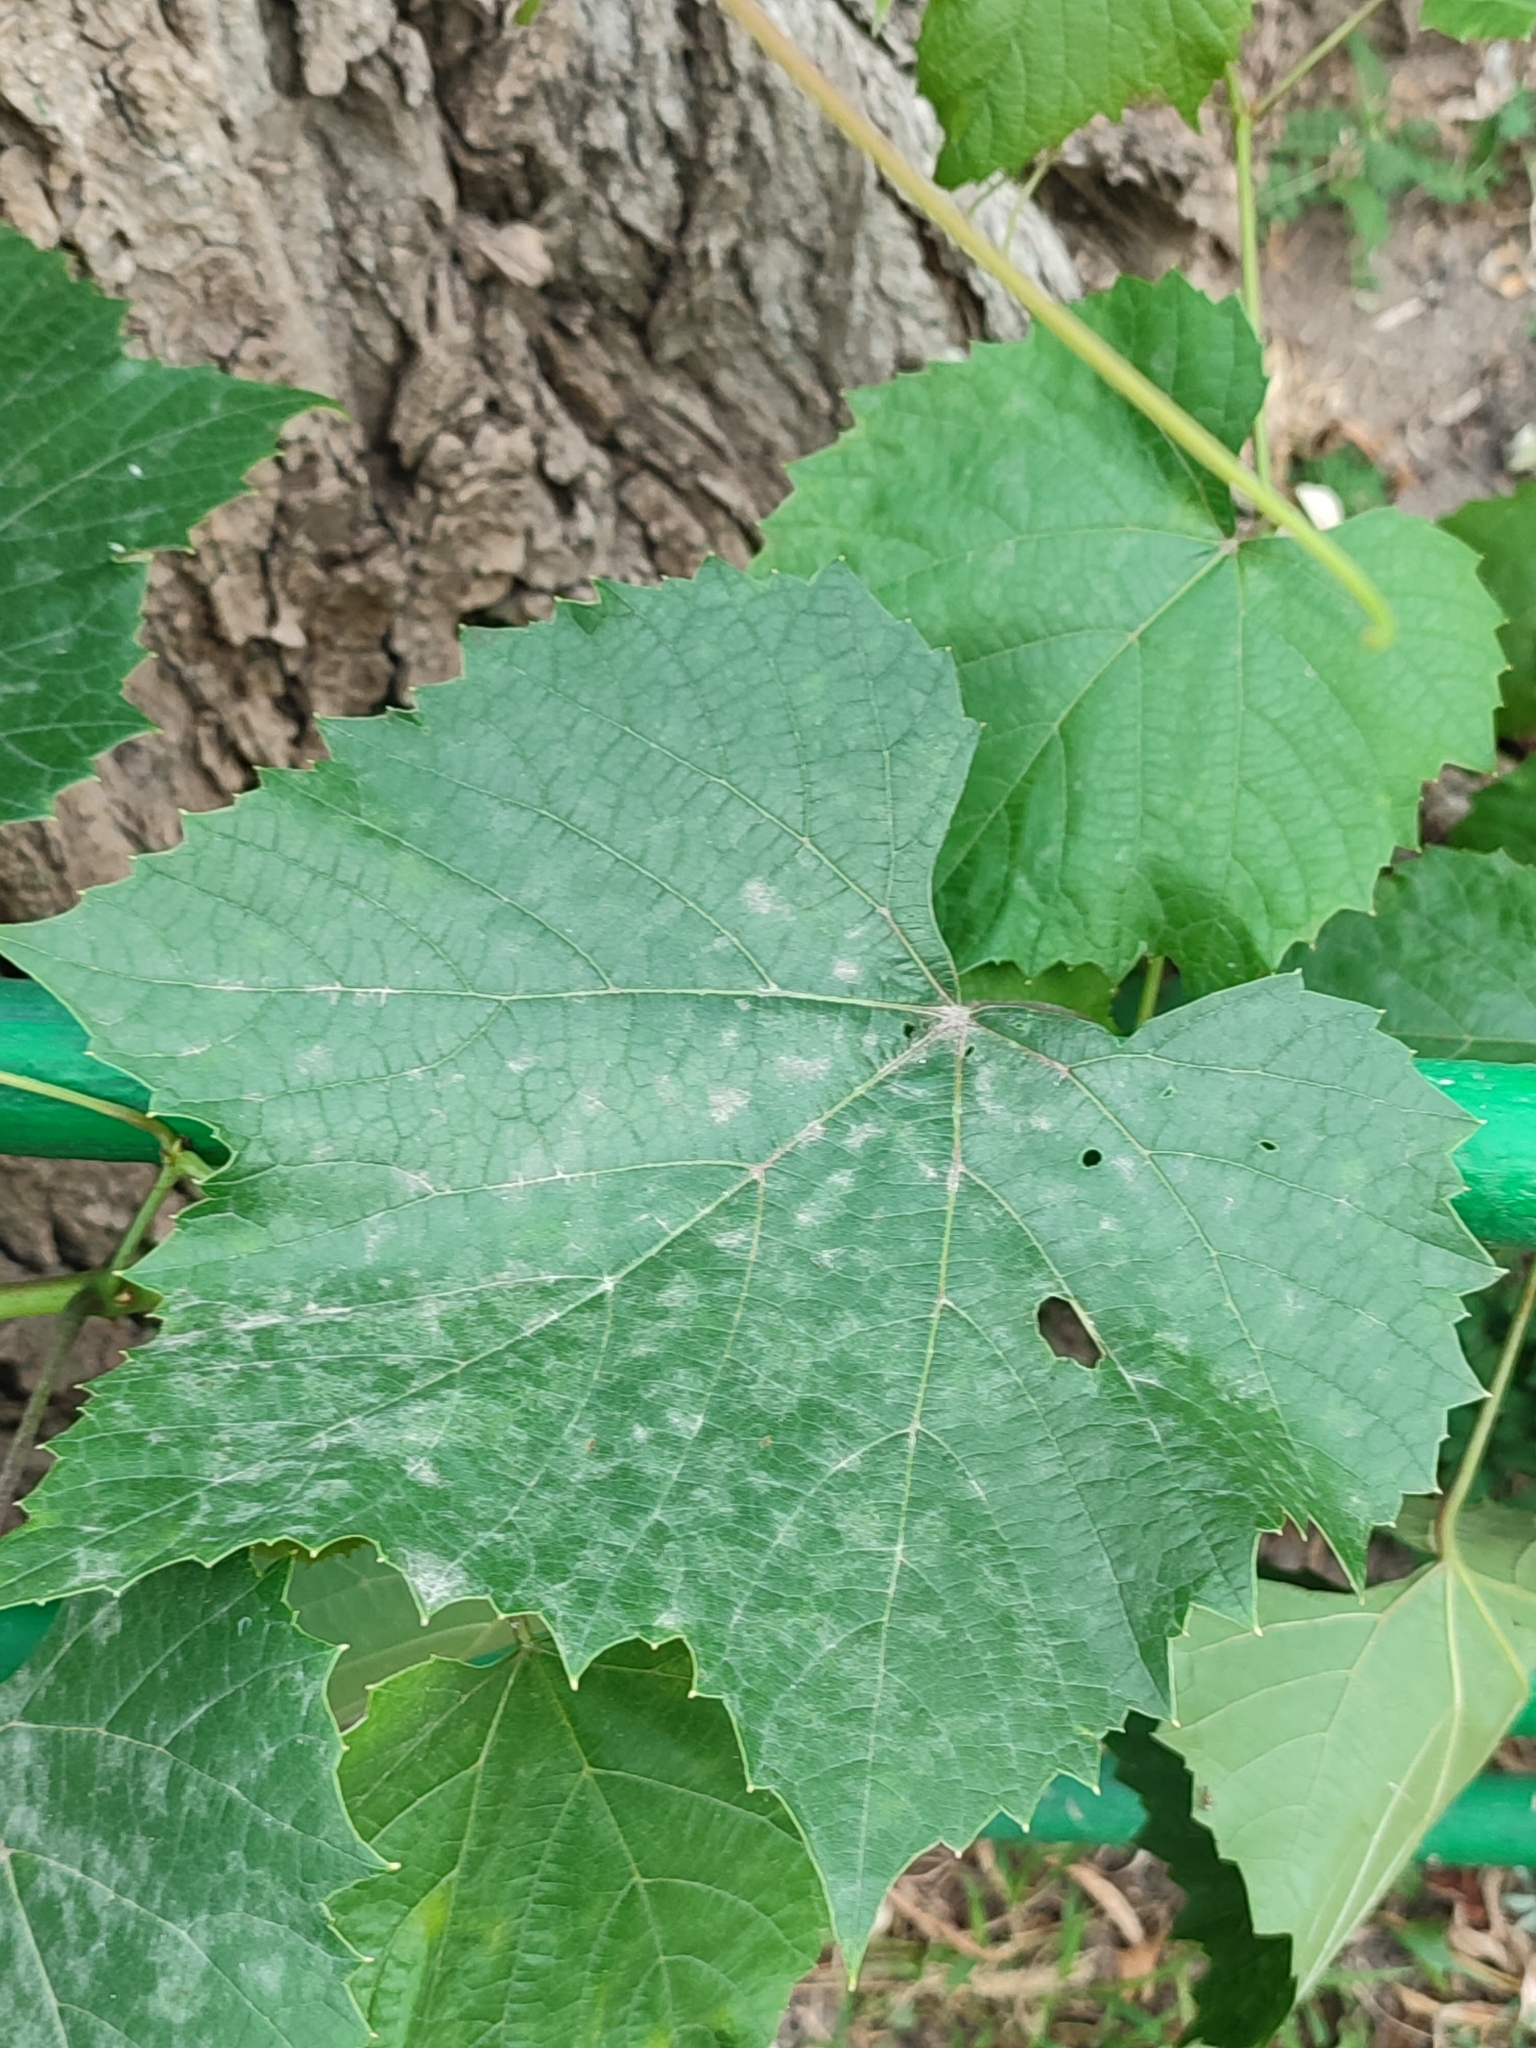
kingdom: Fungi
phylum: Ascomycota
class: Leotiomycetes
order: Helotiales
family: Erysiphaceae
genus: Erysiphe
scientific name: Erysiphe necator
